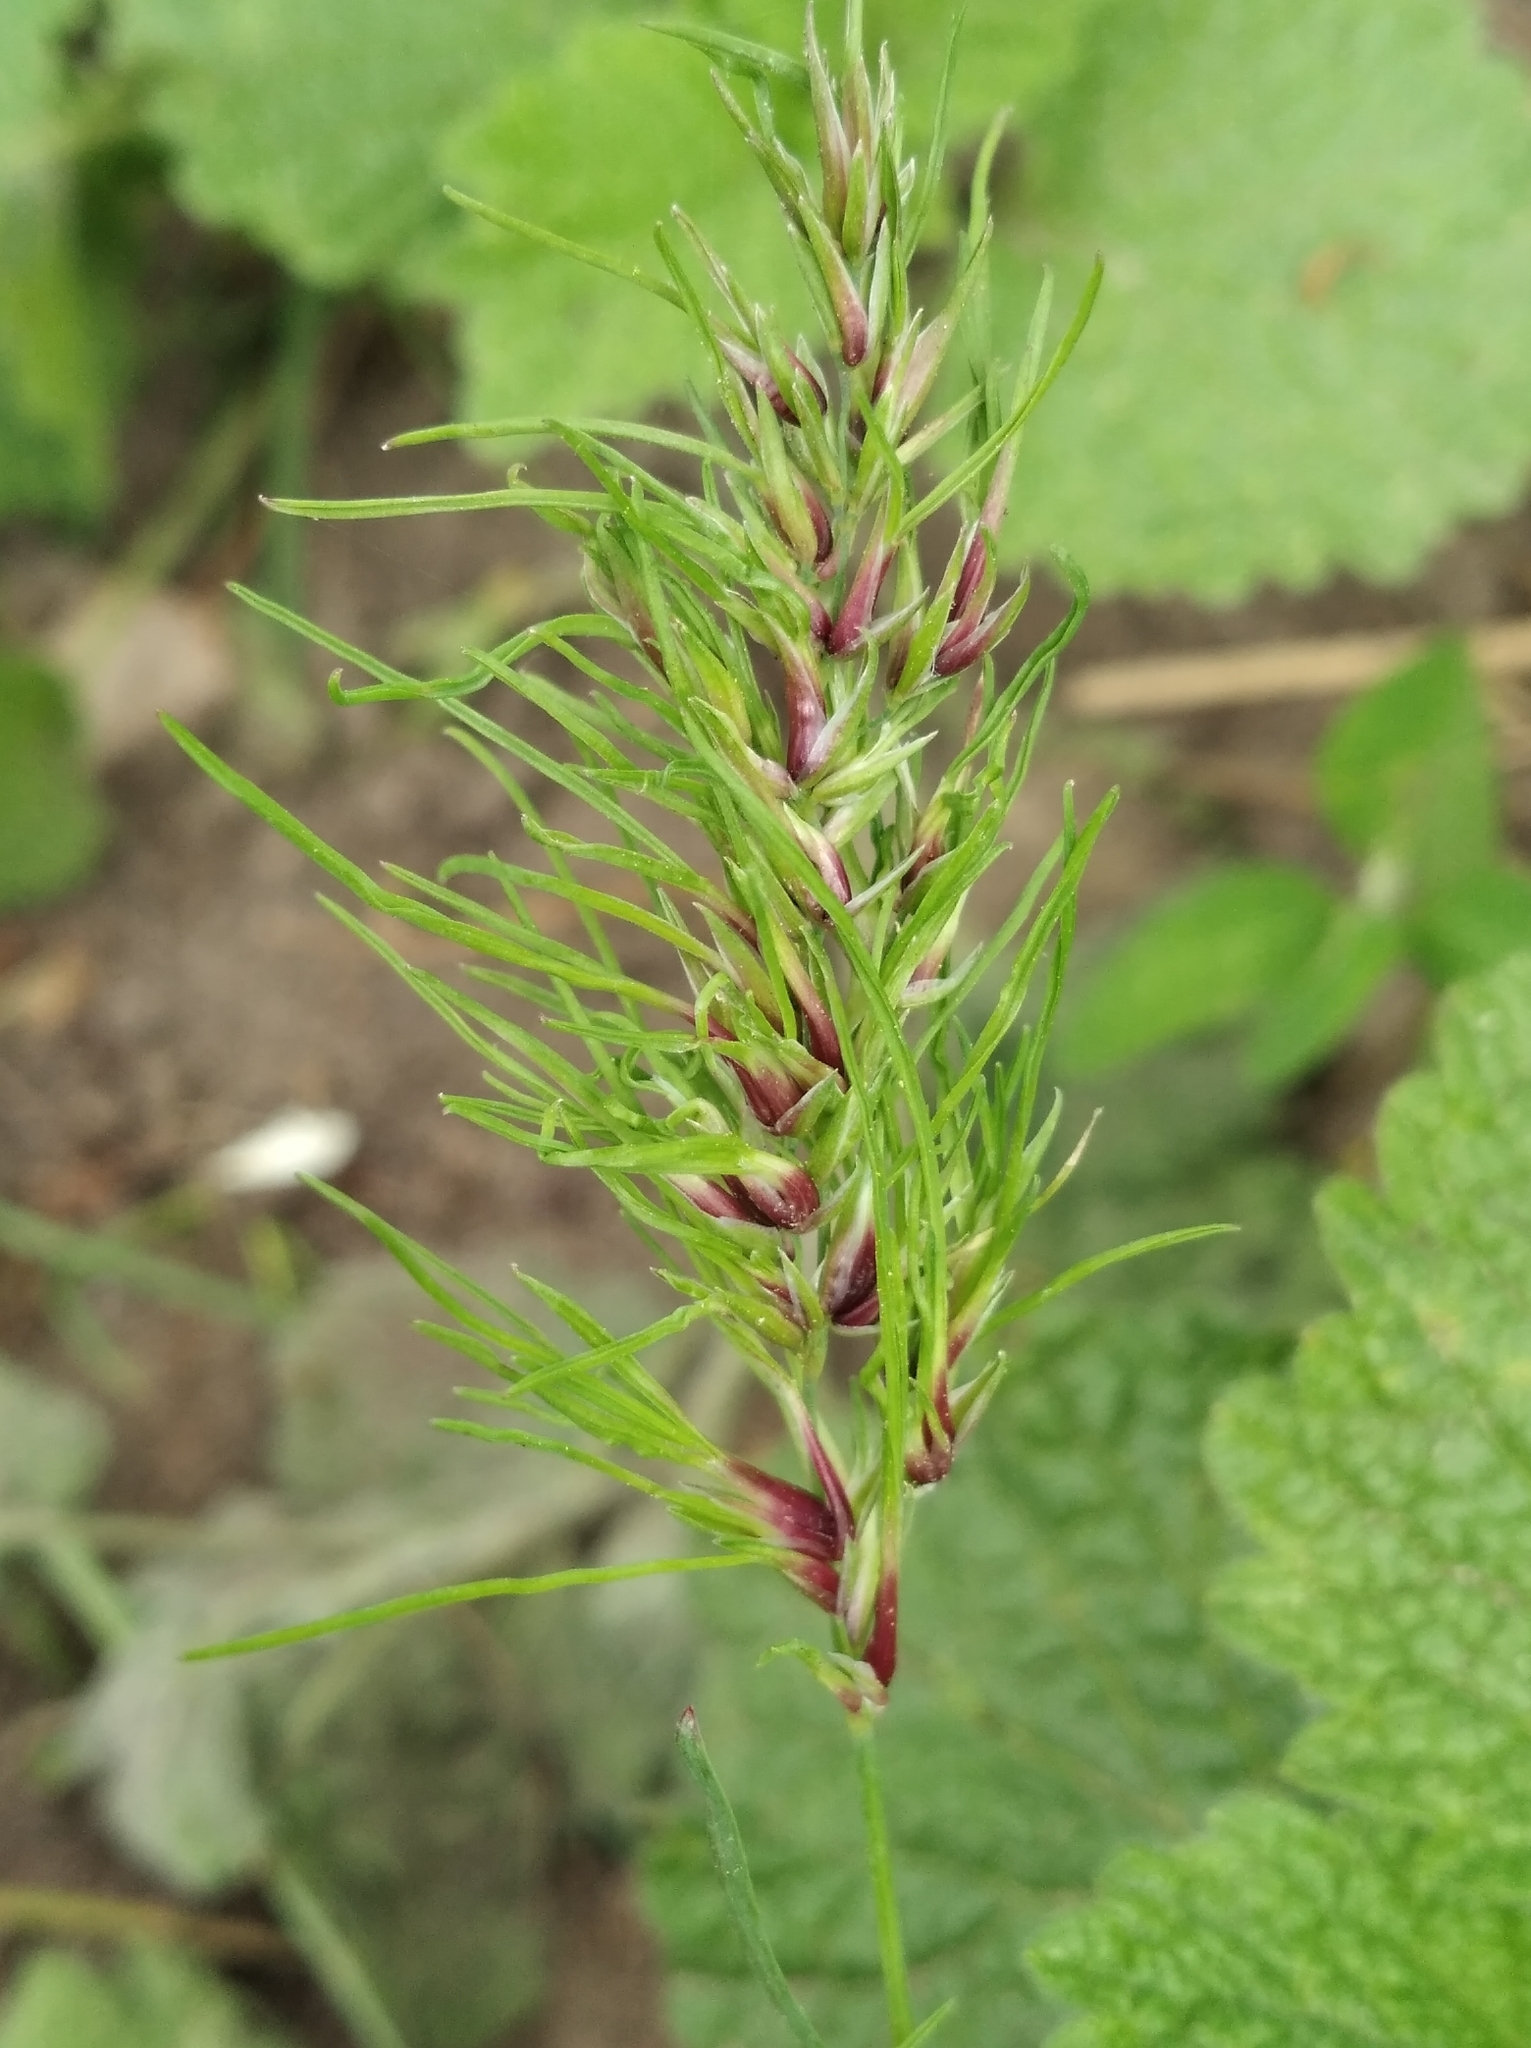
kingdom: Plantae
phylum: Tracheophyta
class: Liliopsida
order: Poales
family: Poaceae
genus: Poa
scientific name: Poa bulbosa
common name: Bulbous bluegrass
